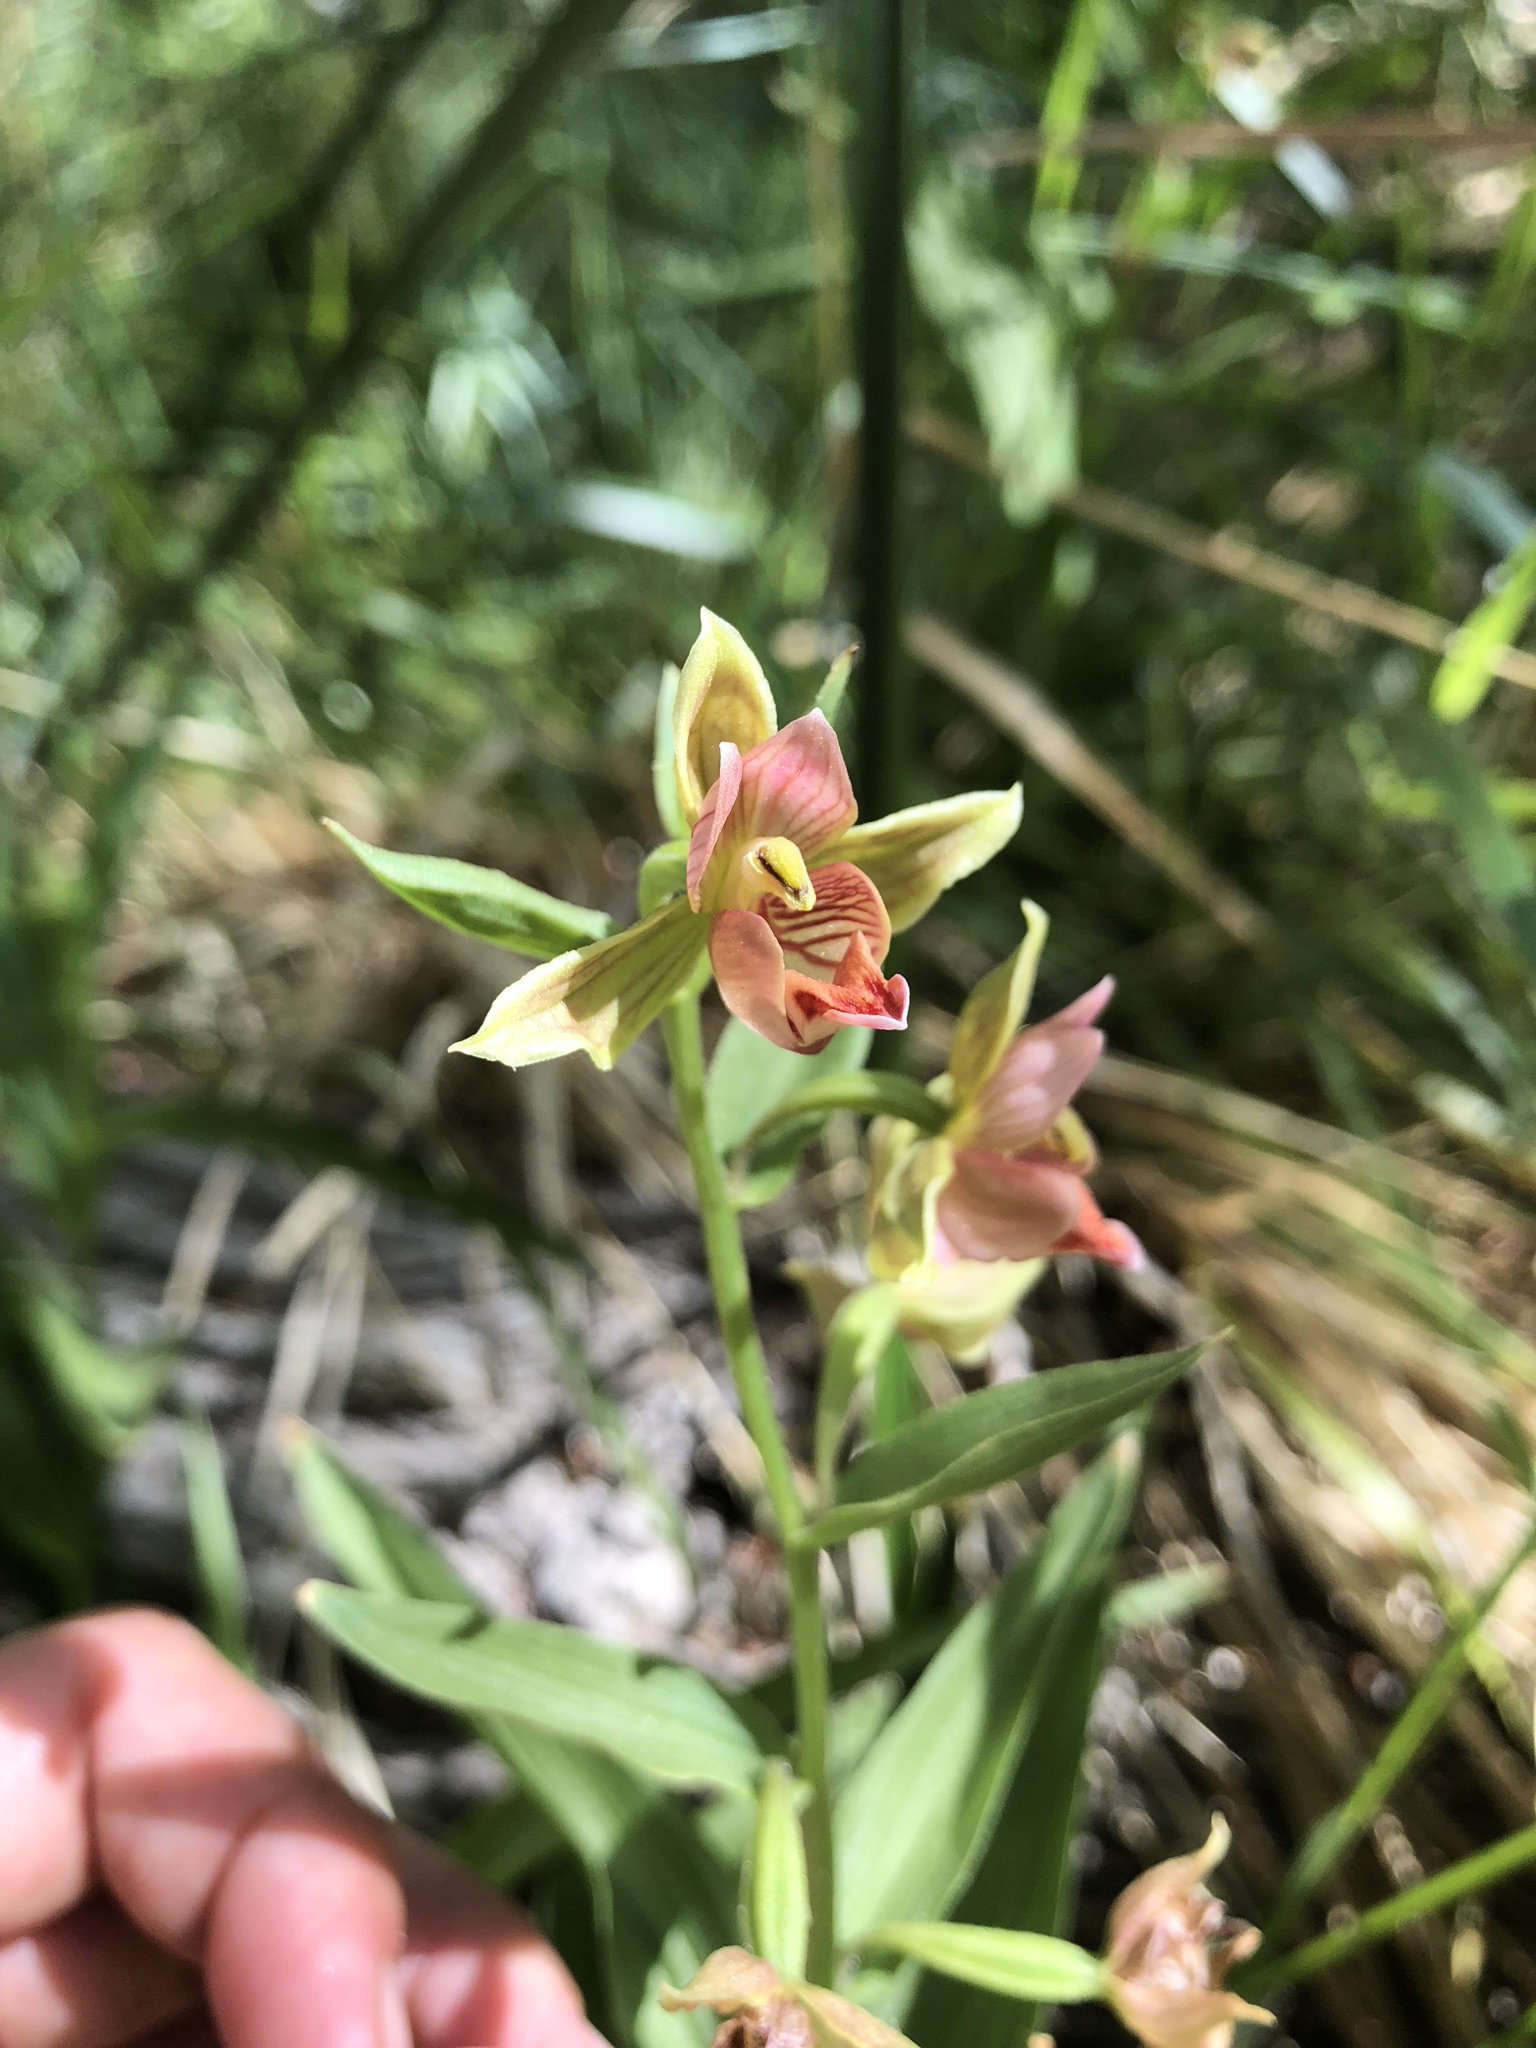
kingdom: Plantae
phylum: Tracheophyta
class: Liliopsida
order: Asparagales
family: Orchidaceae
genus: Epipactis
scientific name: Epipactis gigantea
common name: Chatterbox
